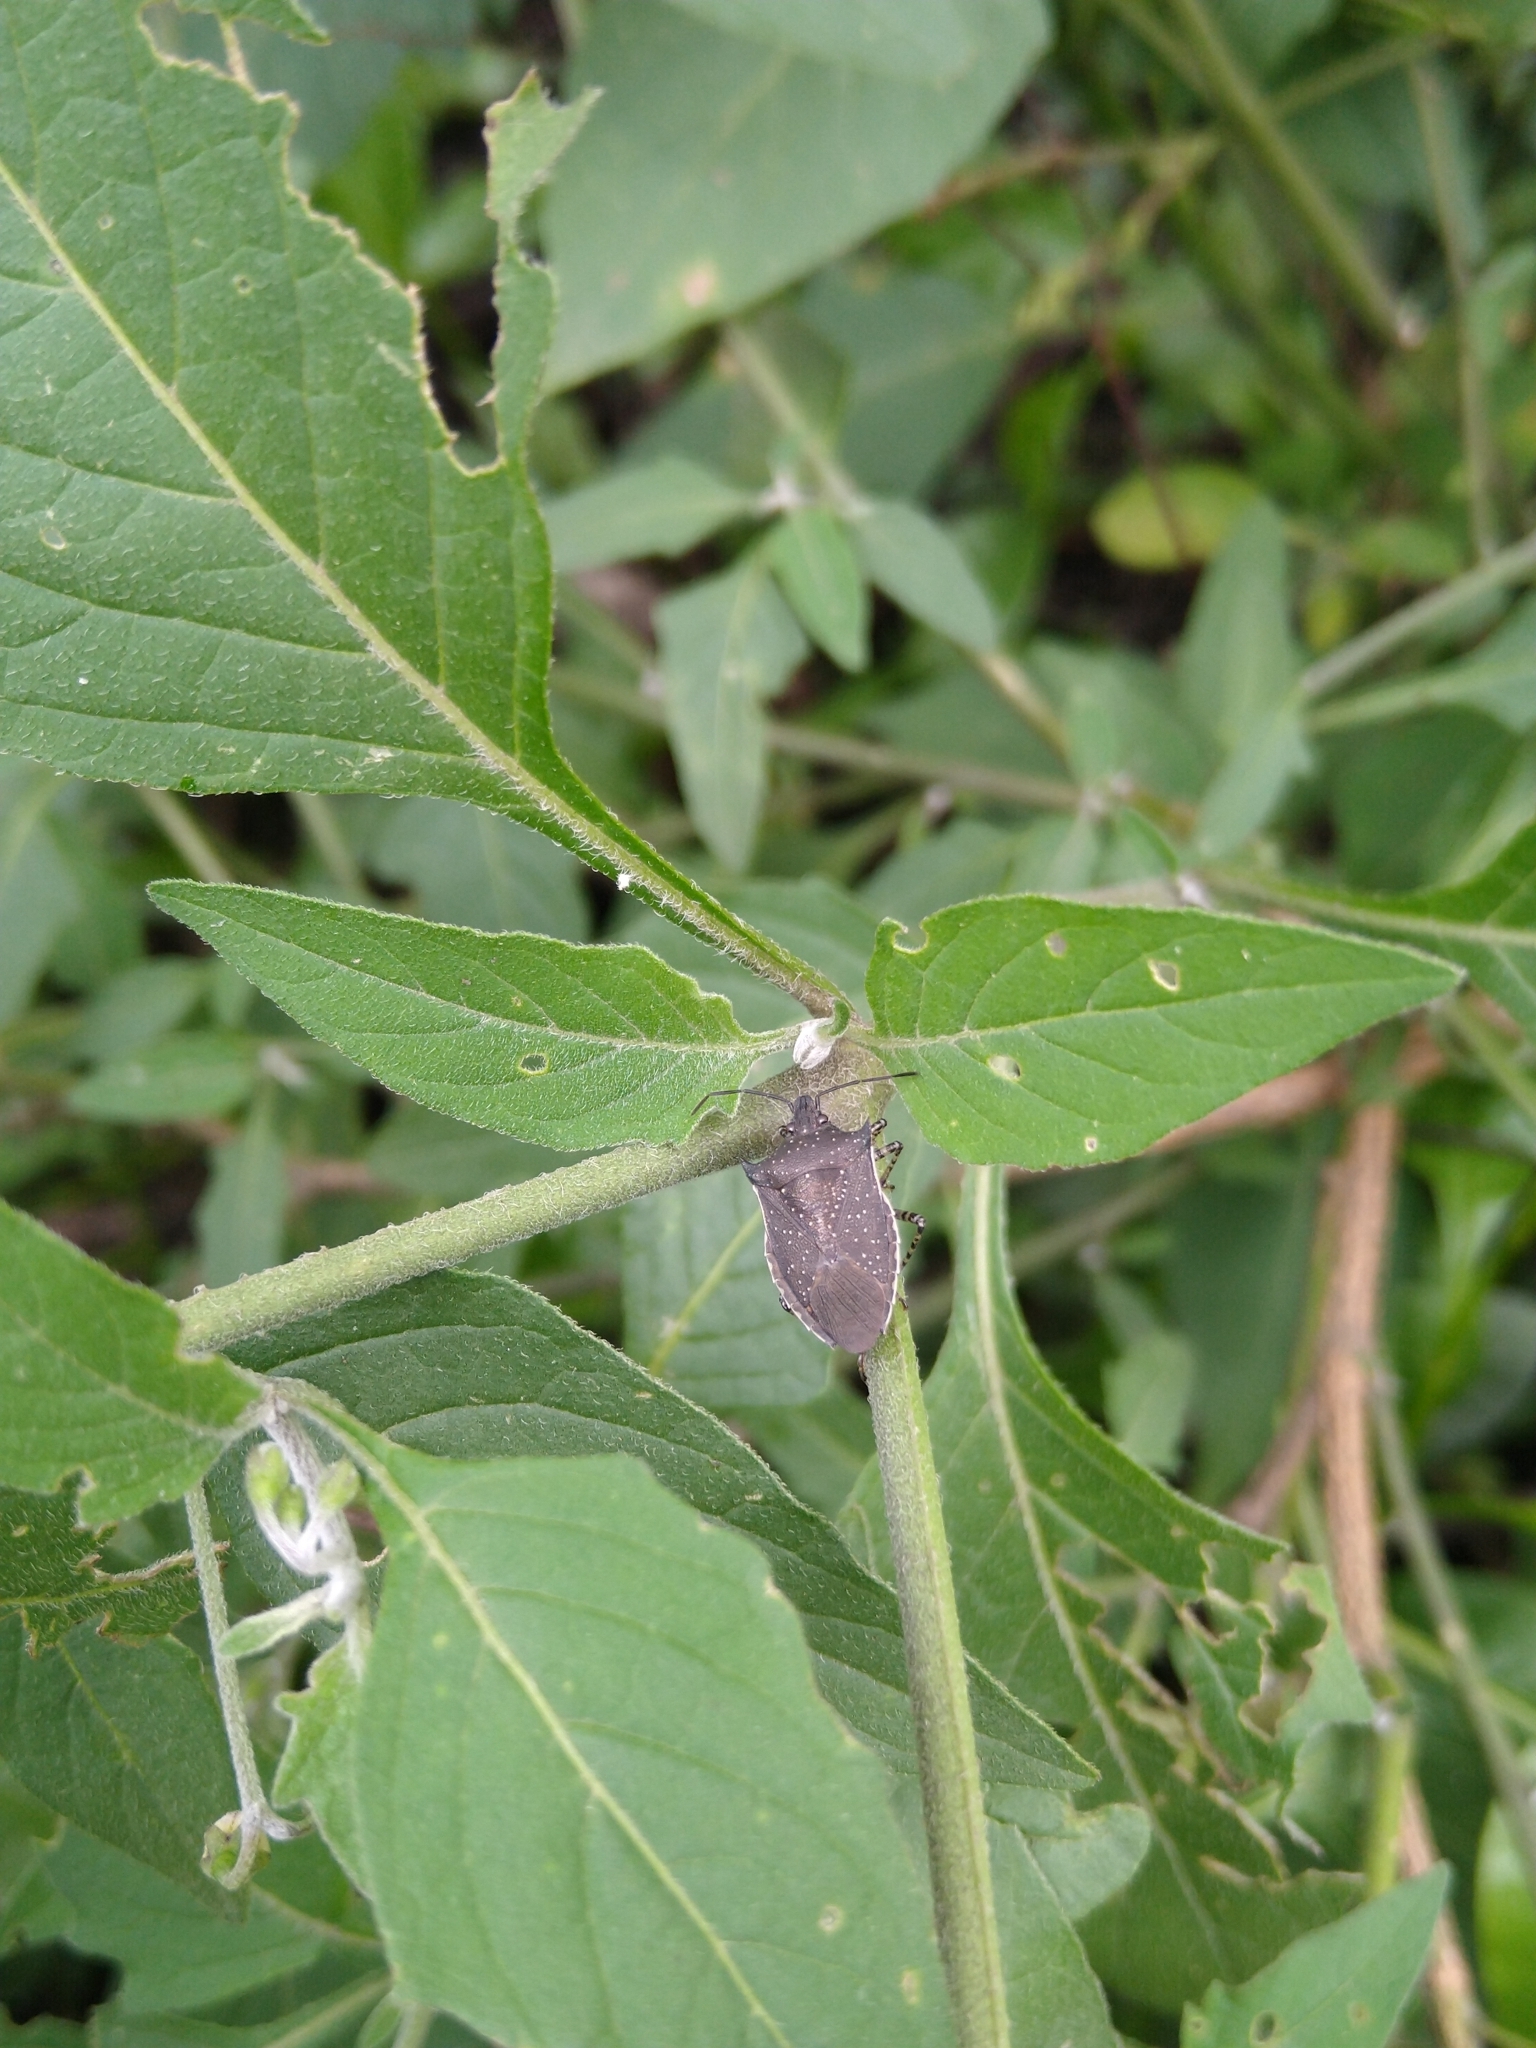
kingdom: Animalia
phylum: Arthropoda
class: Insecta
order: Hemiptera
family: Pentatomidae
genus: Padaeus
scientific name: Padaeus trivittatus
